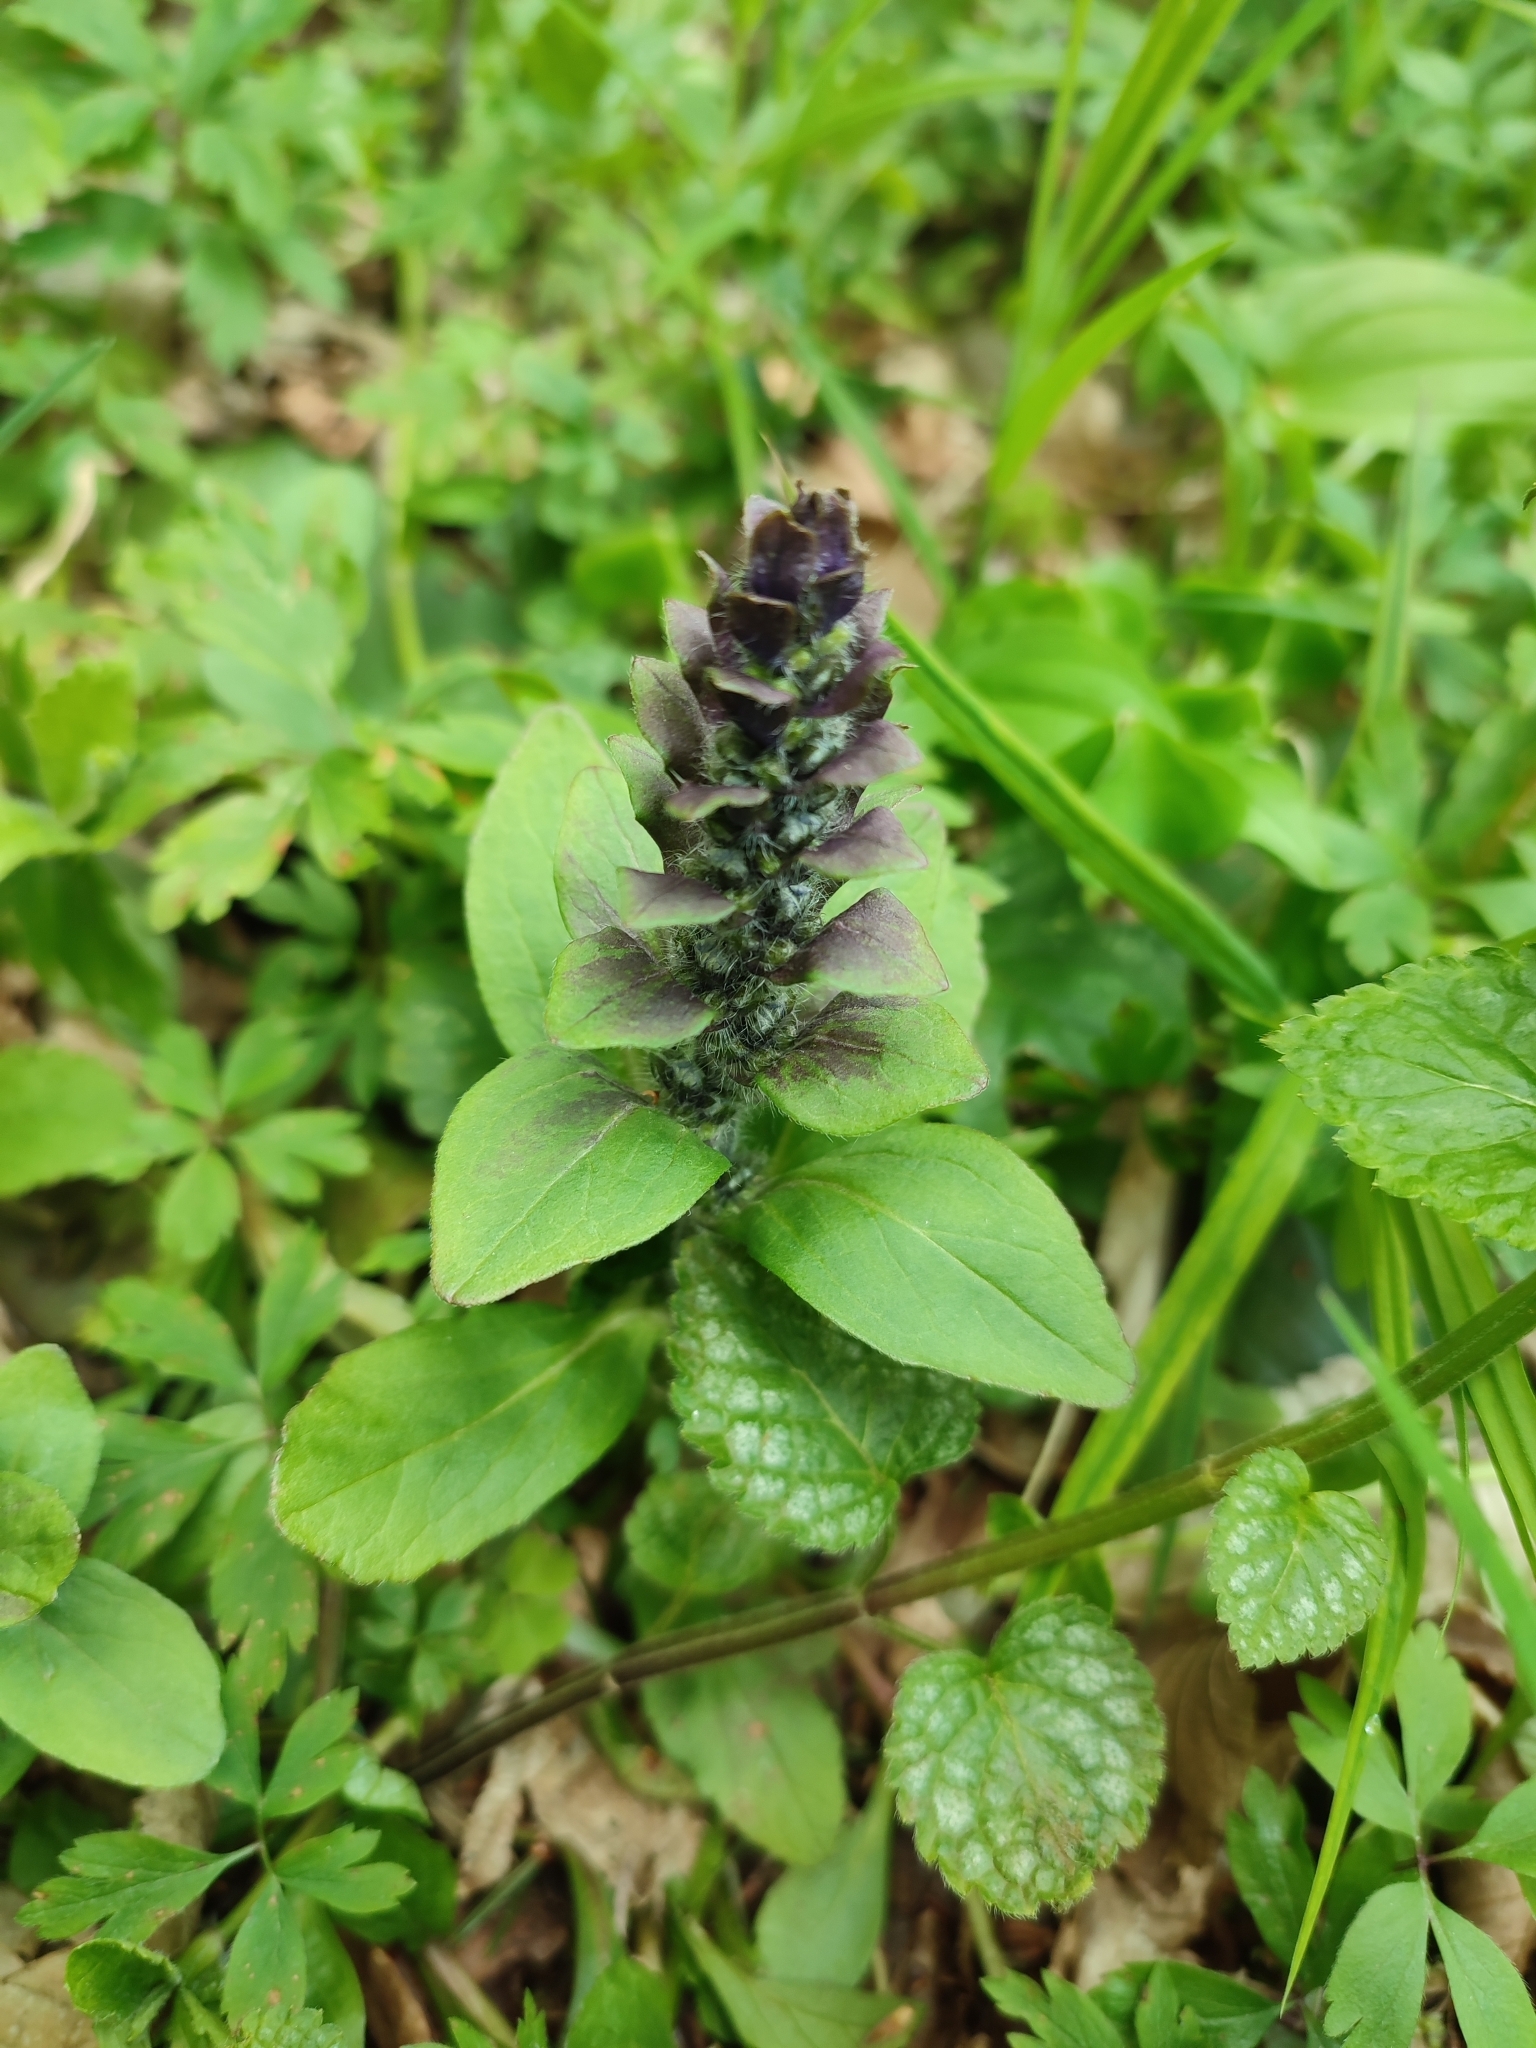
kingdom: Plantae
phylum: Tracheophyta
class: Magnoliopsida
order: Lamiales
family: Lamiaceae
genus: Ajuga
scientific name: Ajuga reptans
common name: Bugle
